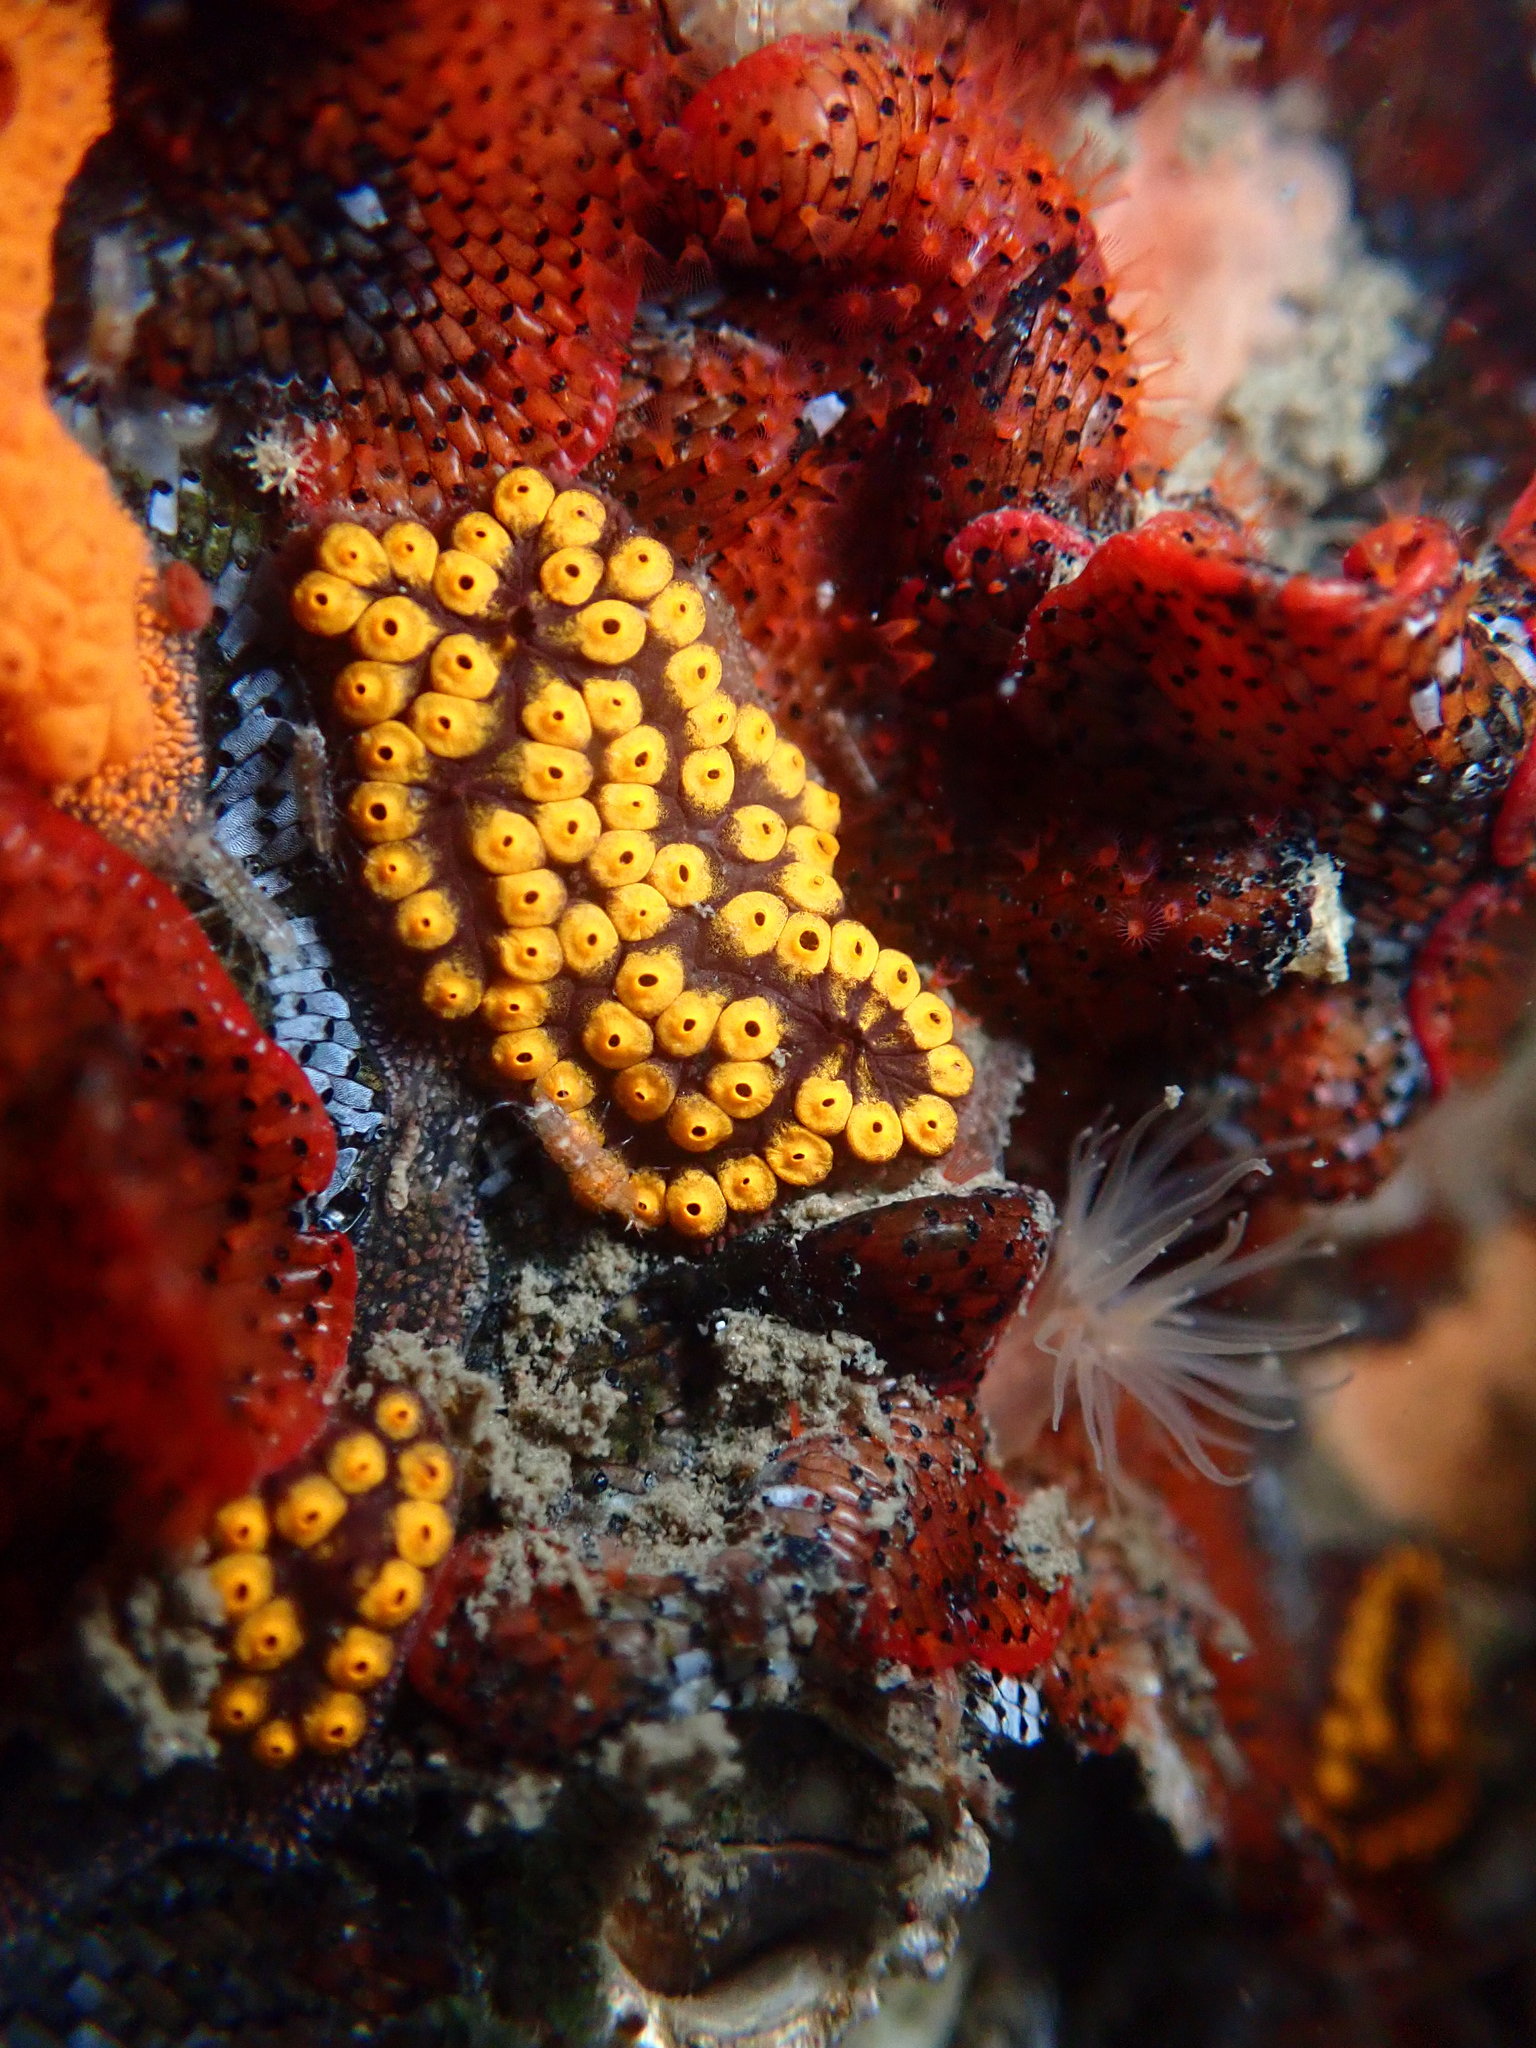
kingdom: Animalia
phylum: Chordata
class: Ascidiacea
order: Stolidobranchia
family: Styelidae
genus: Botrylloides
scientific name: Botrylloides diegensis
